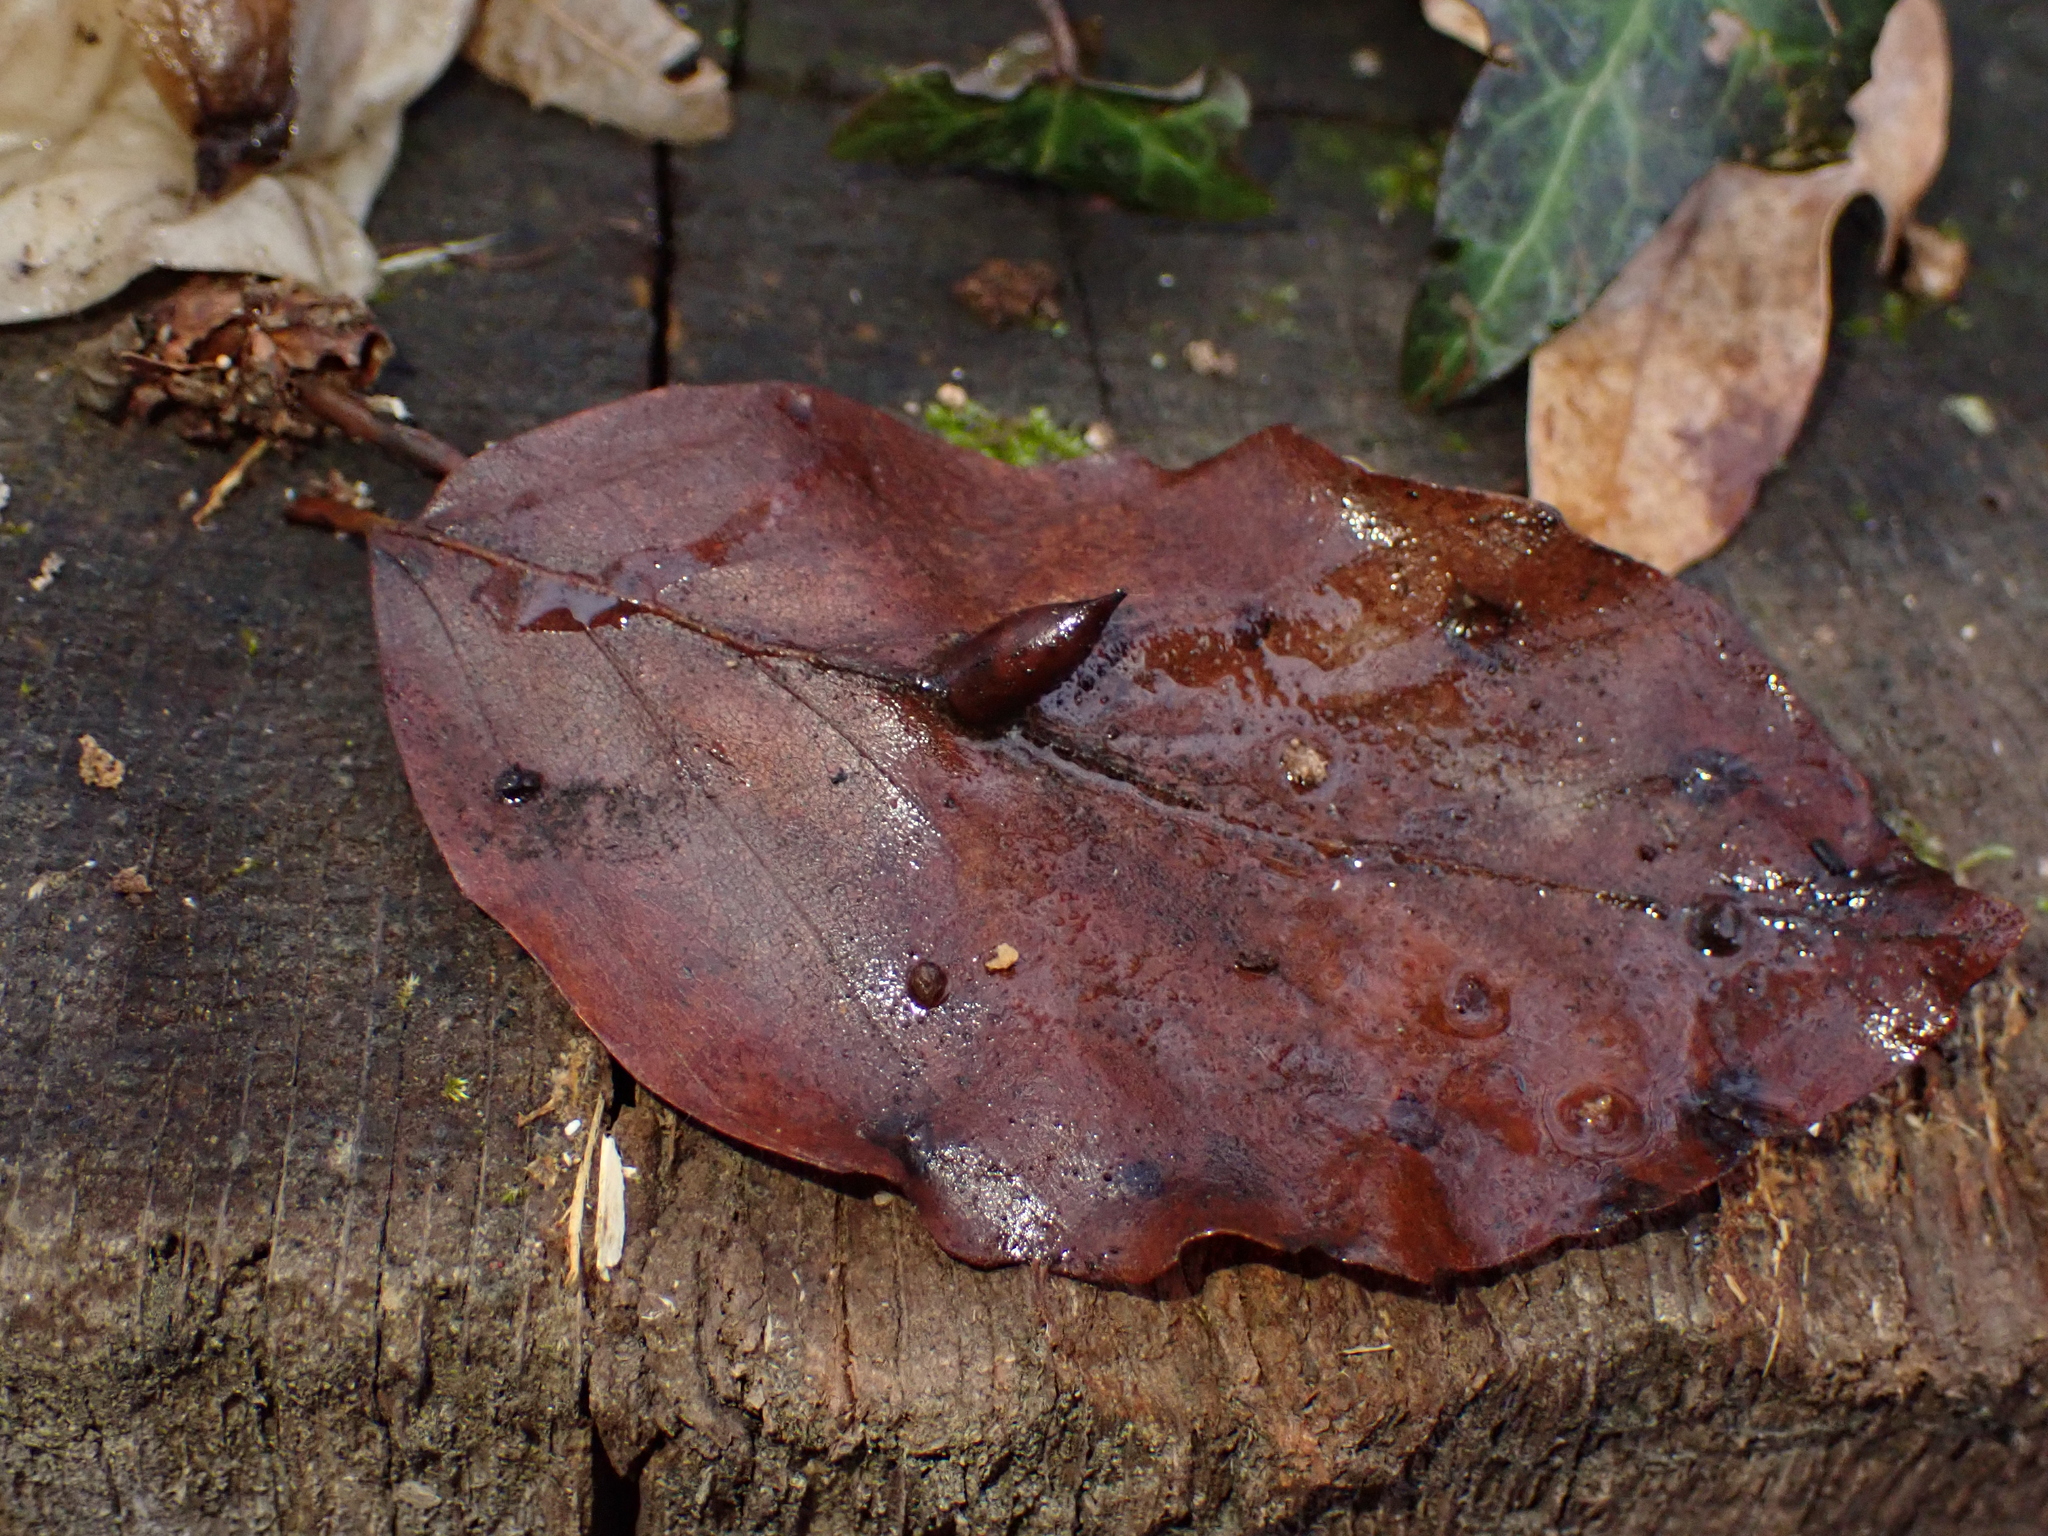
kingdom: Animalia
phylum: Arthropoda
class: Insecta
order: Diptera
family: Cecidomyiidae
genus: Mikiola
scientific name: Mikiola fagi
